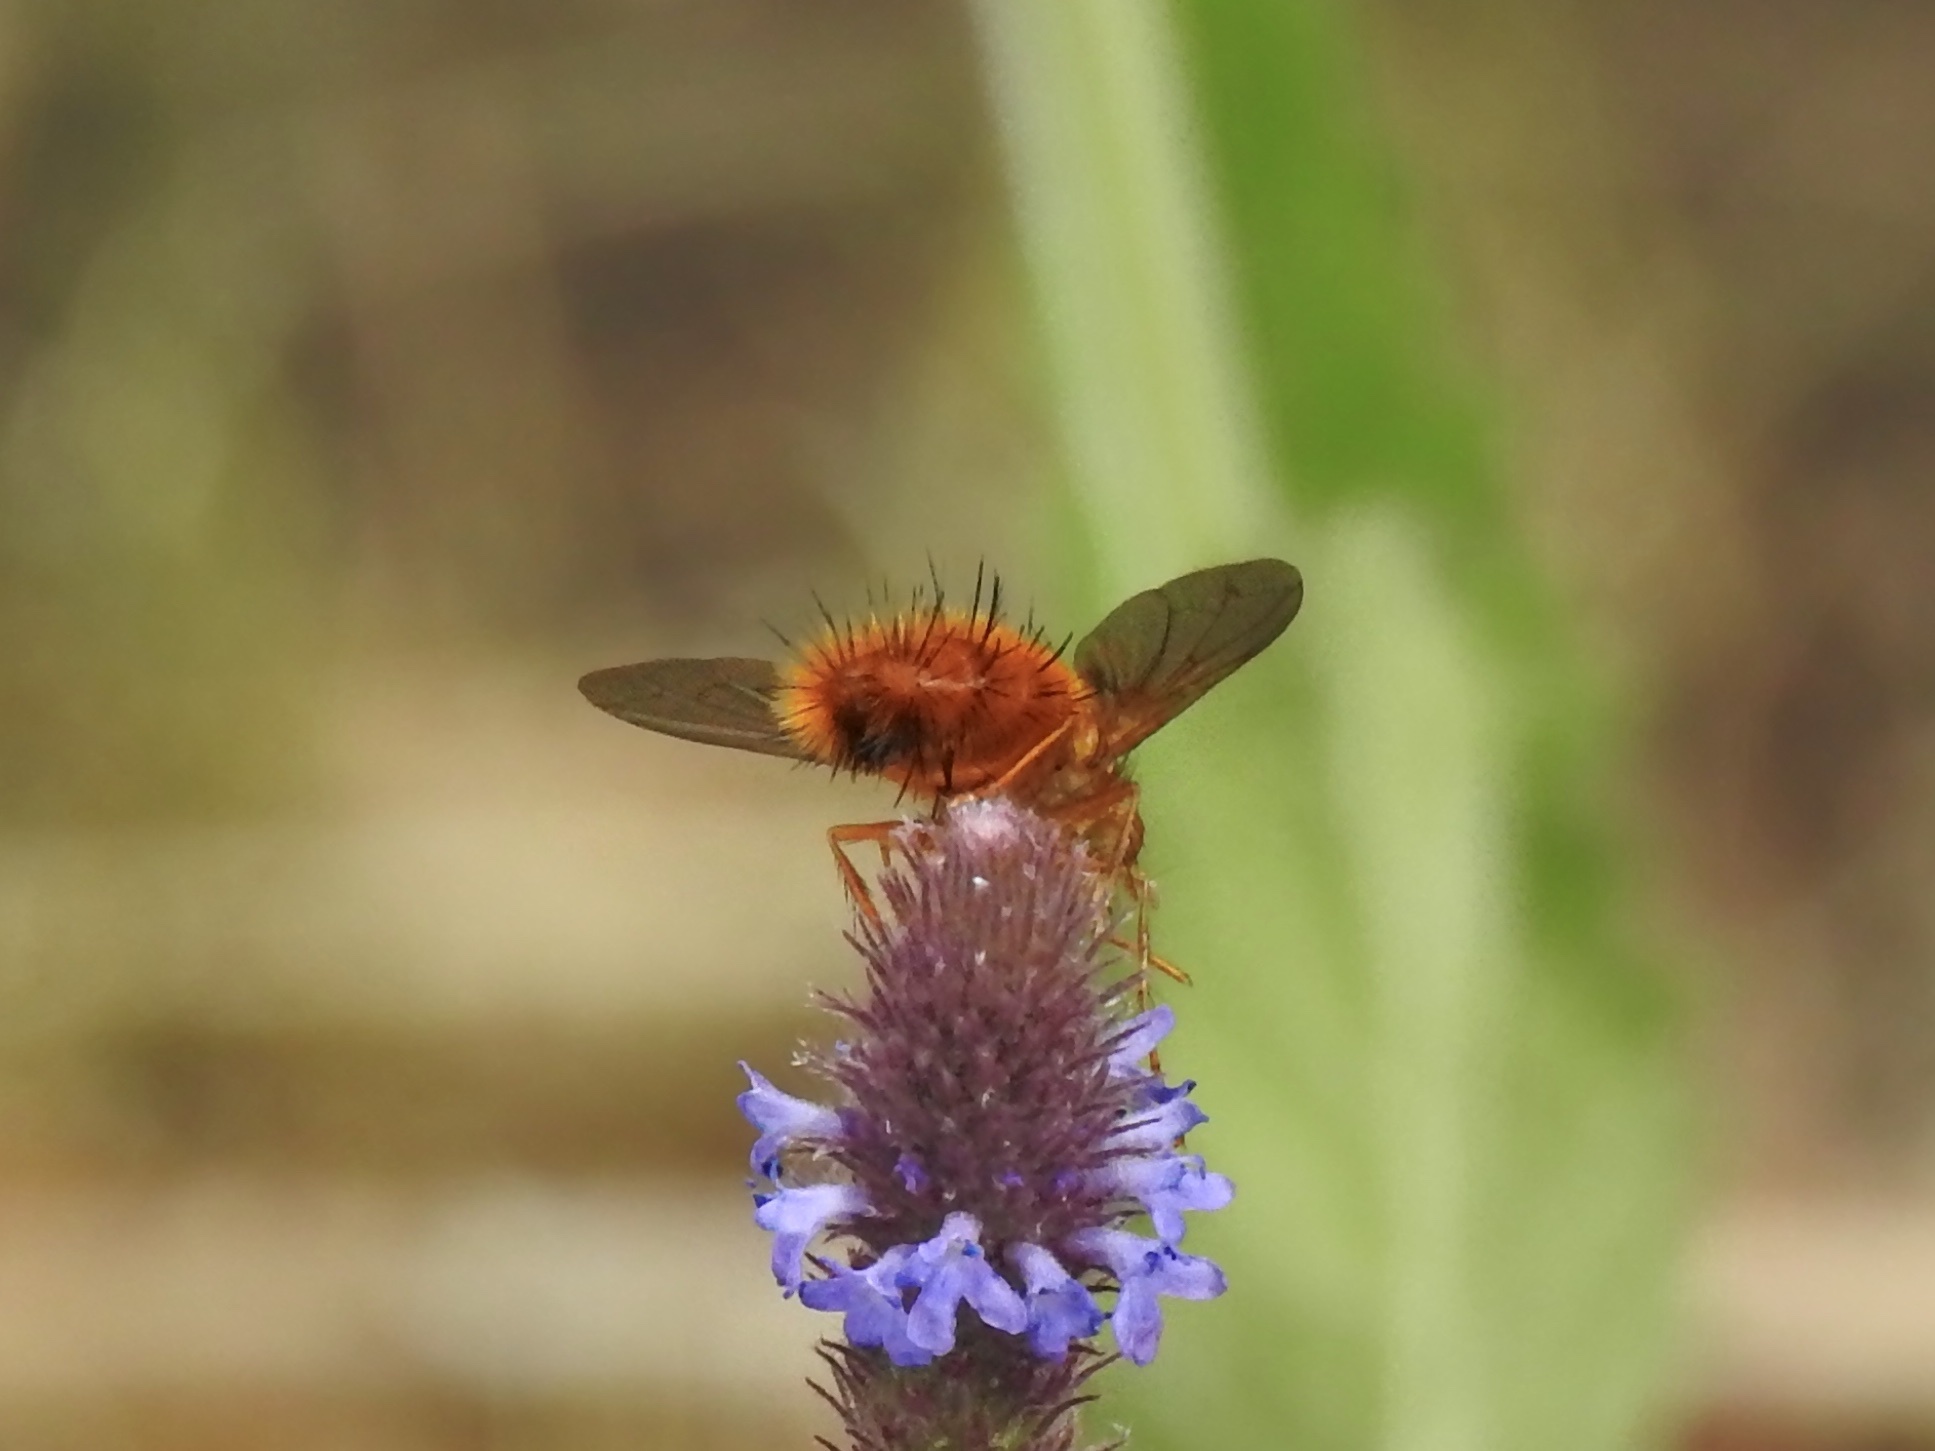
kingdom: Animalia
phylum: Arthropoda
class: Insecta
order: Diptera
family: Tachinidae
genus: Adejeania
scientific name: Adejeania vexatrix
